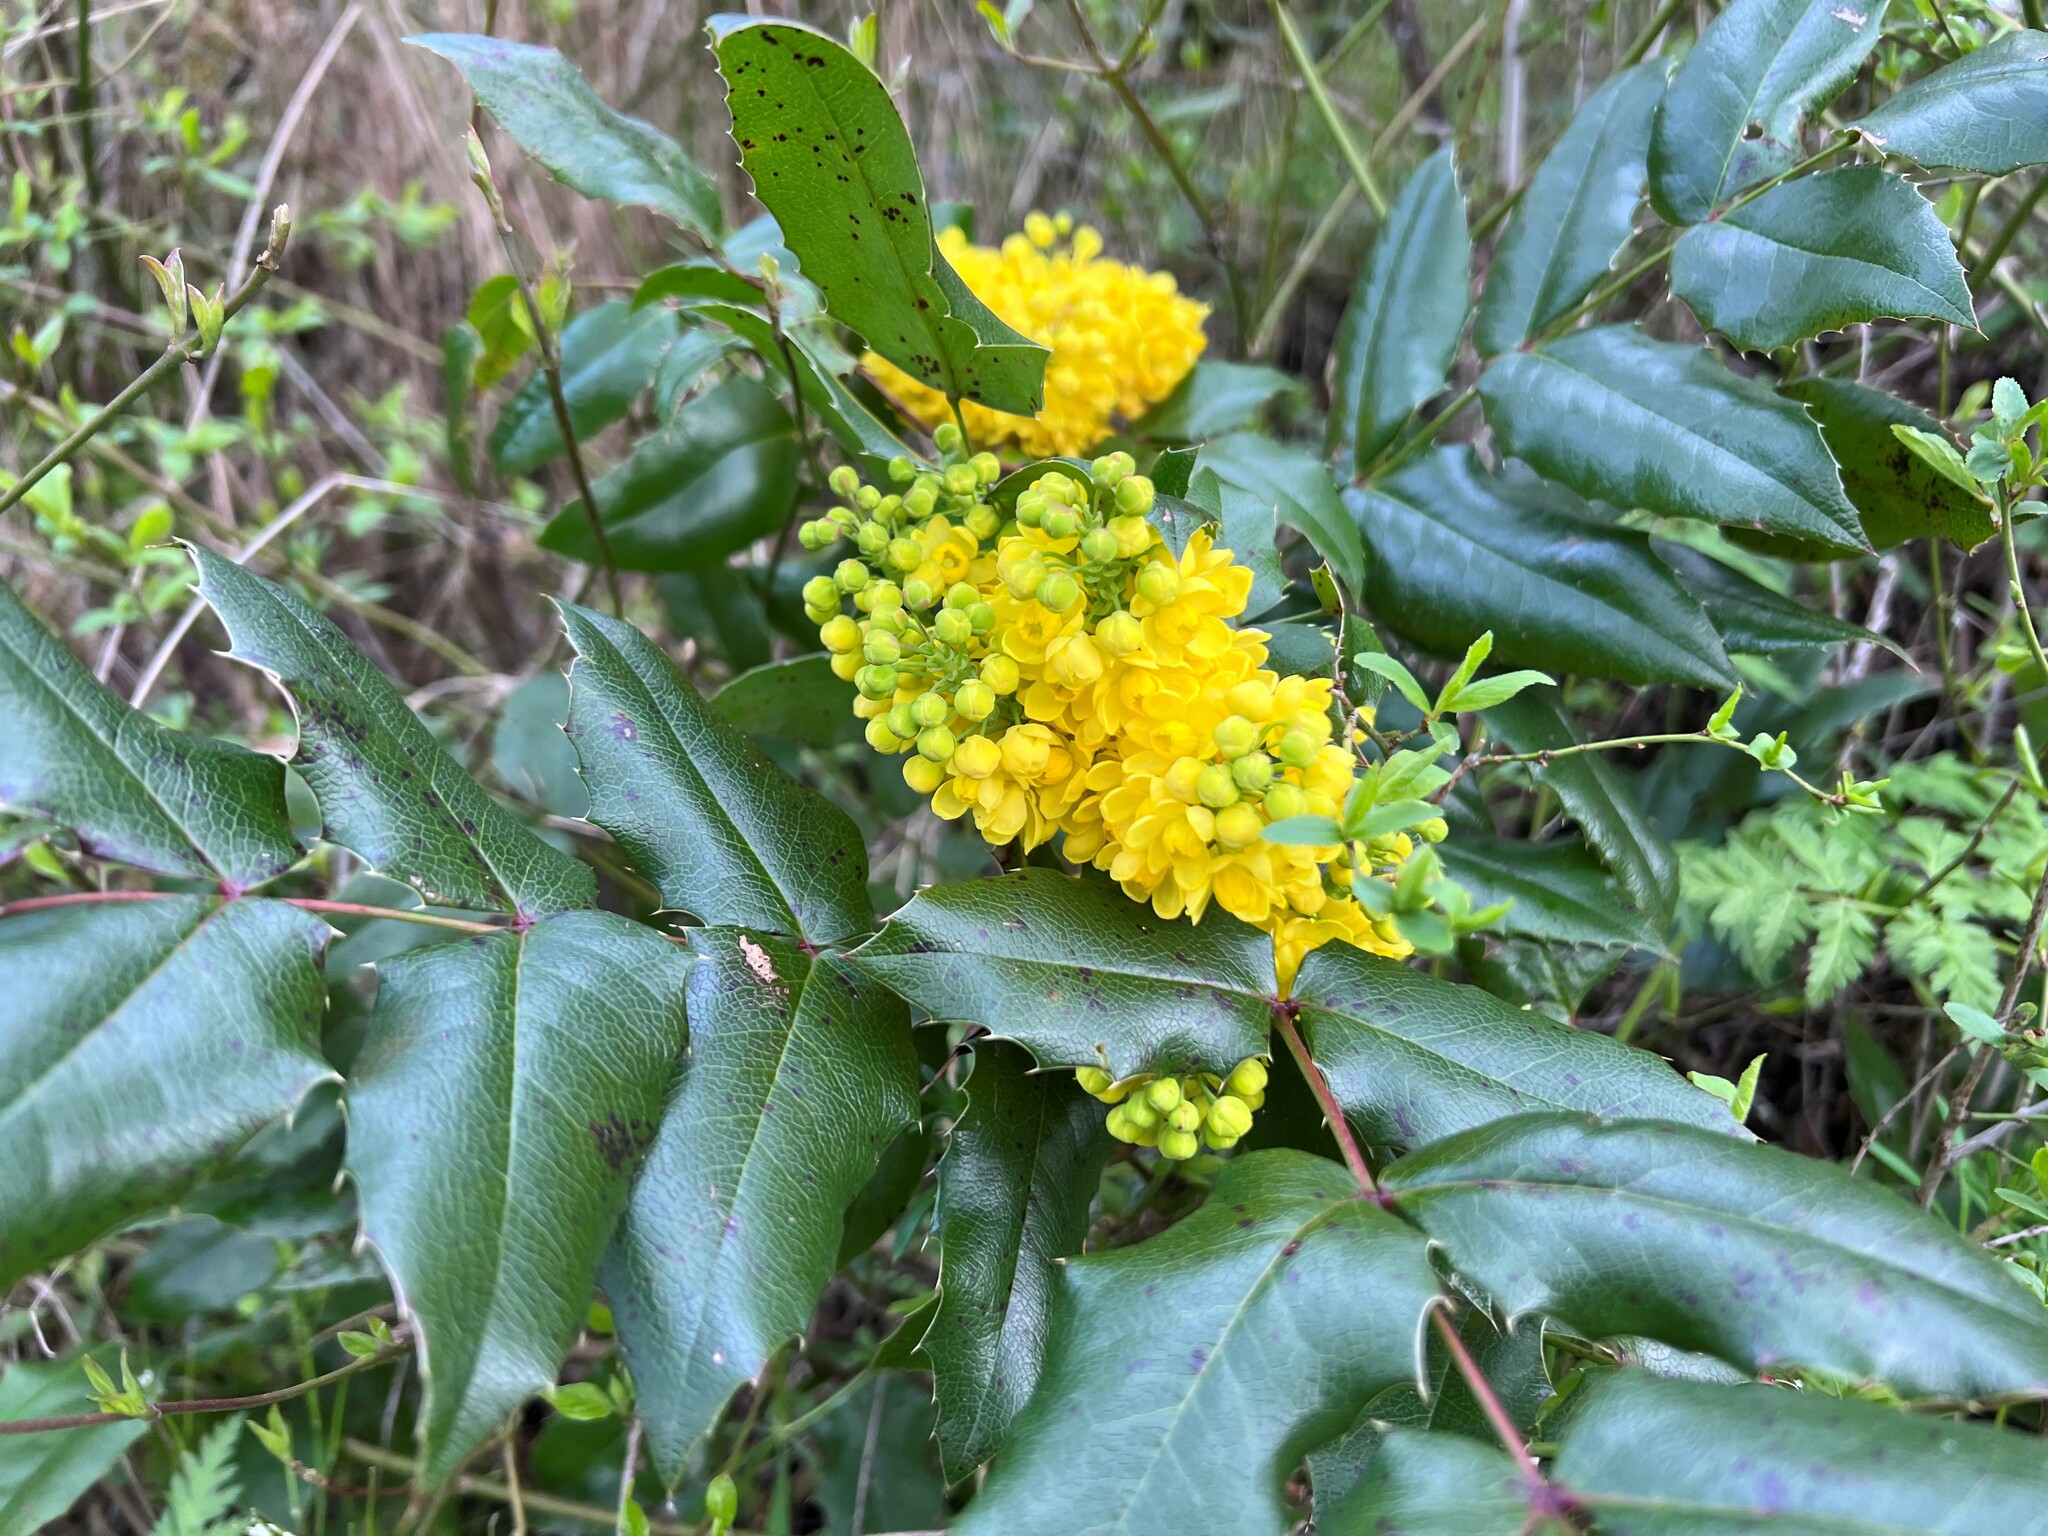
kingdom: Plantae
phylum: Tracheophyta
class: Magnoliopsida
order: Ranunculales
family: Berberidaceae
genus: Mahonia
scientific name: Mahonia aquifolium
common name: Oregon-grape
